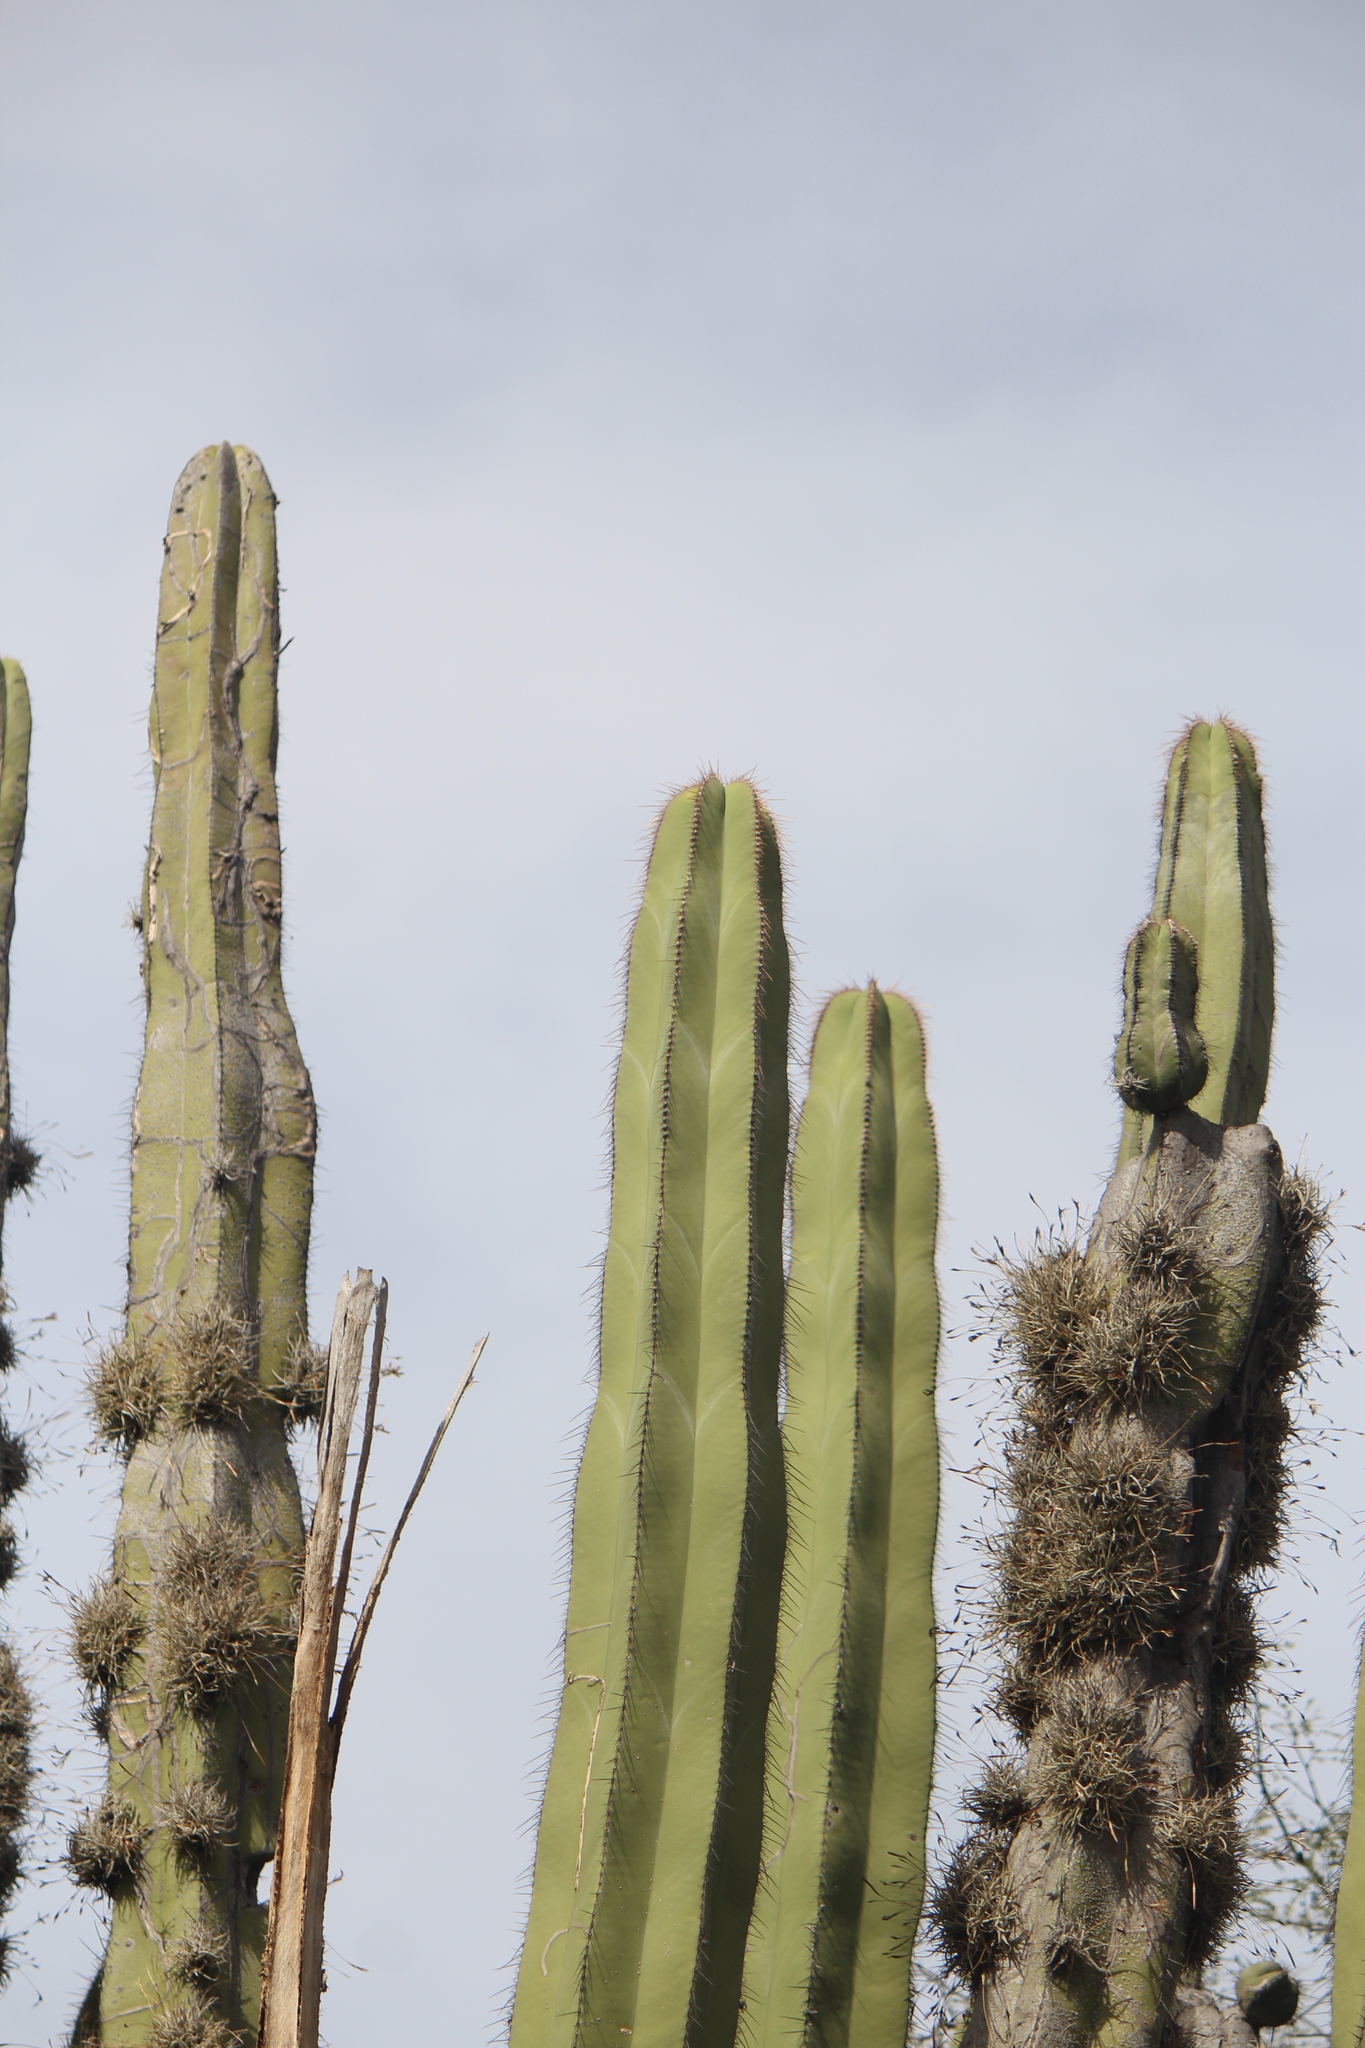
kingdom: Plantae
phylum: Tracheophyta
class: Magnoliopsida
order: Caryophyllales
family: Cactaceae
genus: Stenocereus
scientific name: Stenocereus dumortieri
